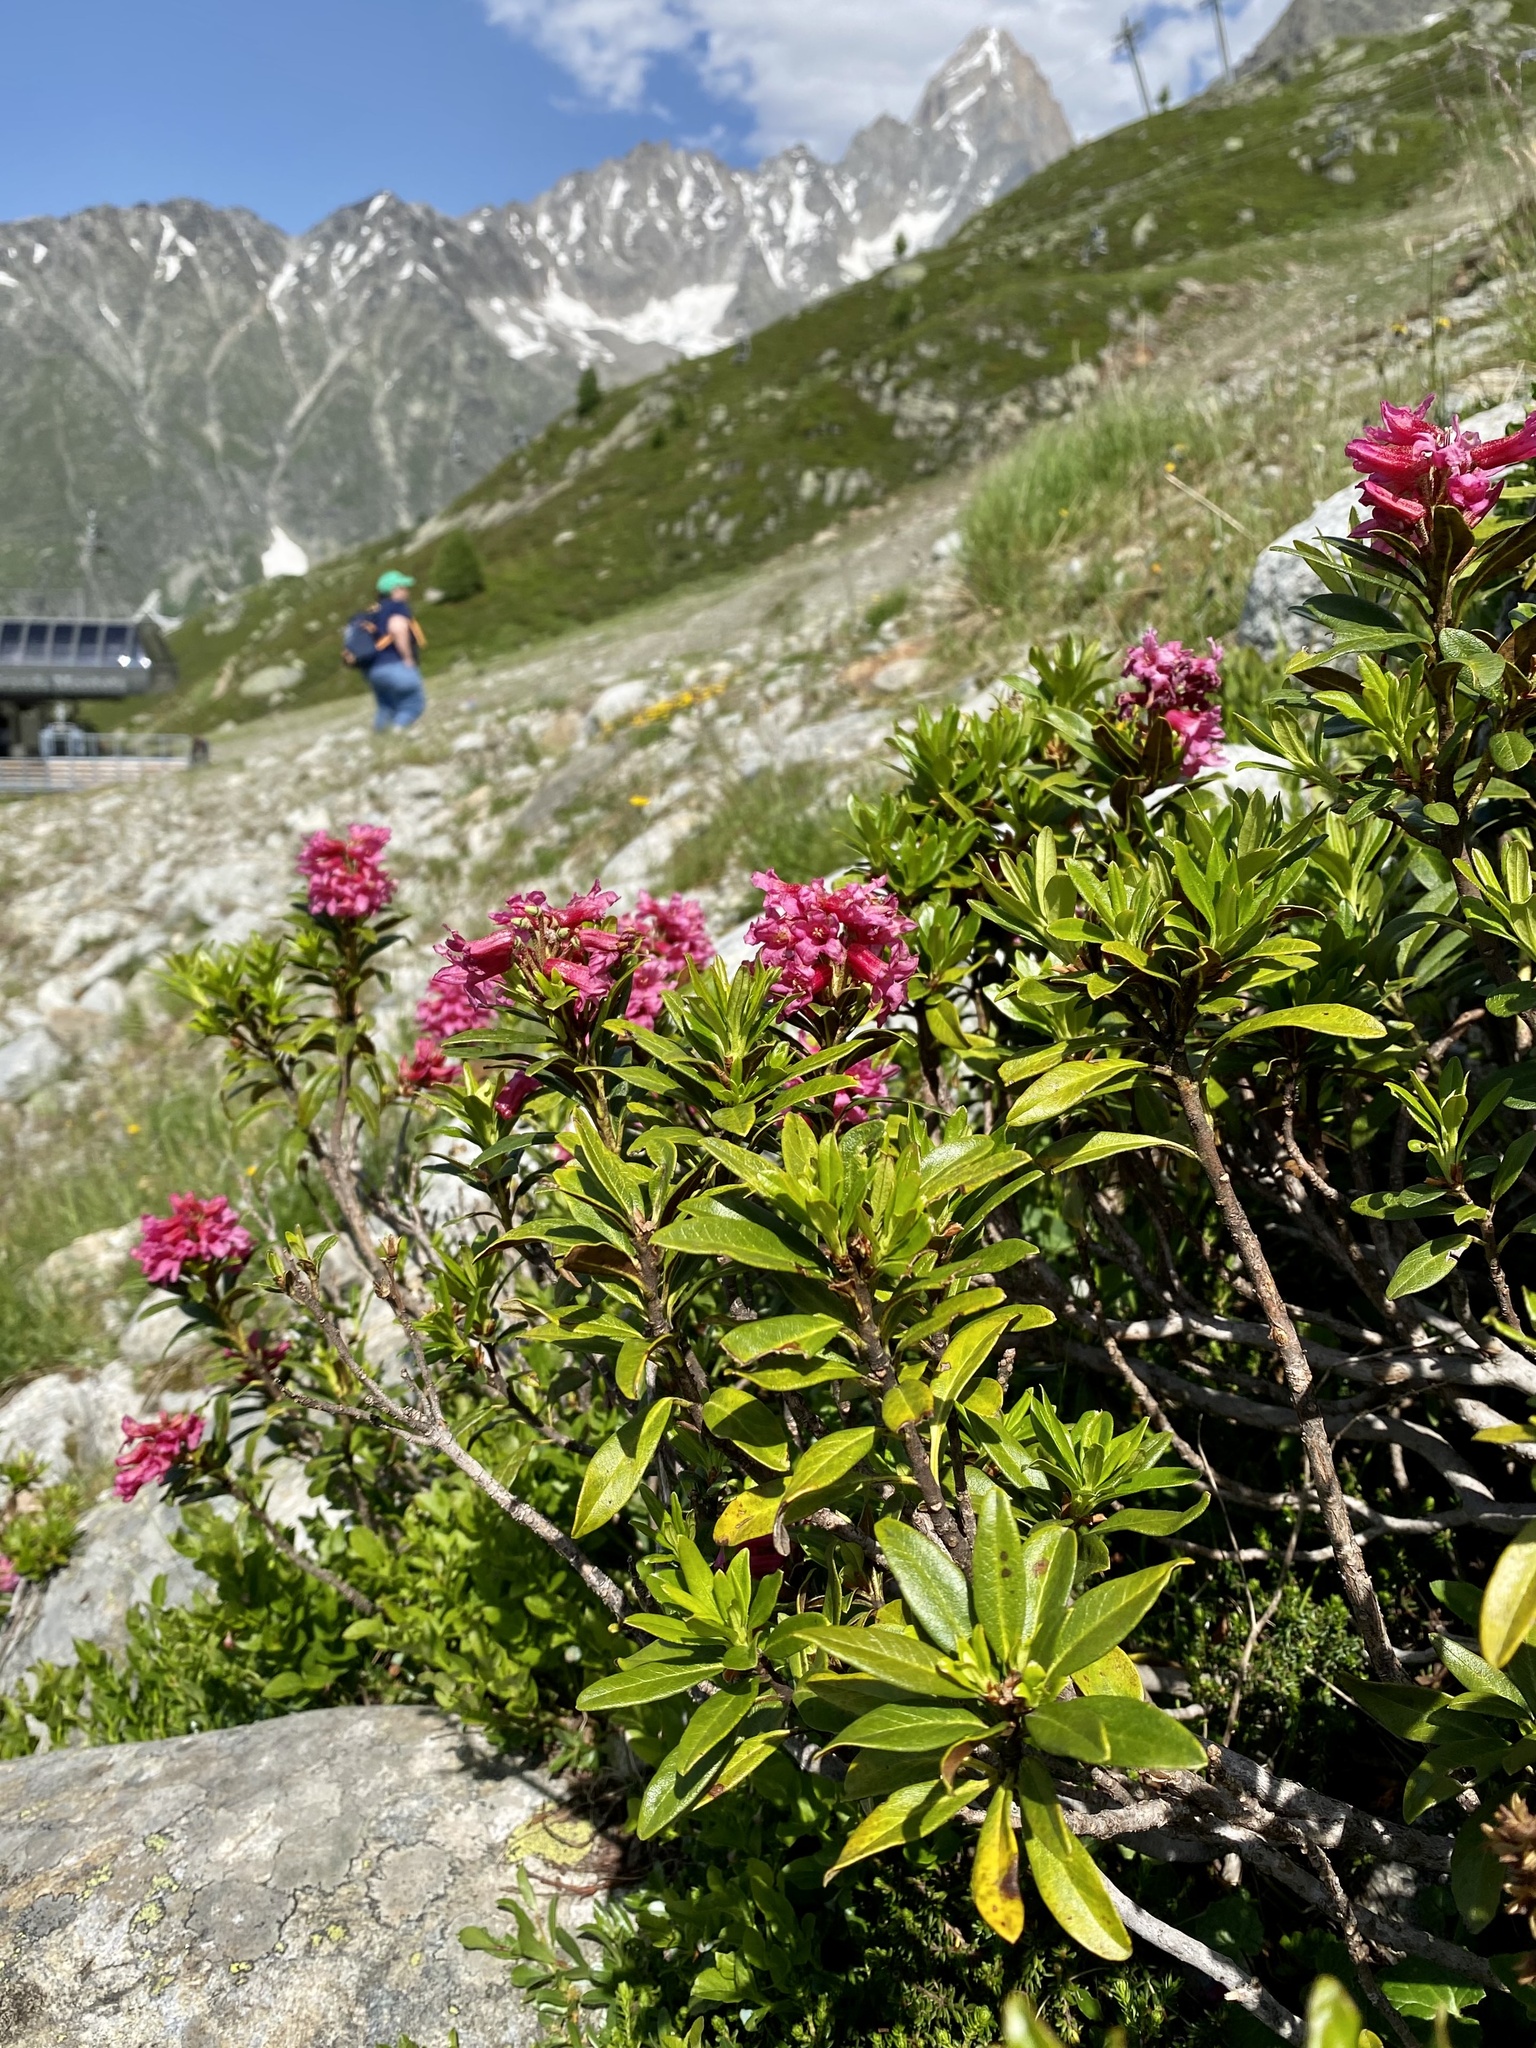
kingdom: Plantae
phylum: Tracheophyta
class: Magnoliopsida
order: Ericales
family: Ericaceae
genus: Rhododendron
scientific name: Rhododendron ferrugineum
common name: Alpenrose
